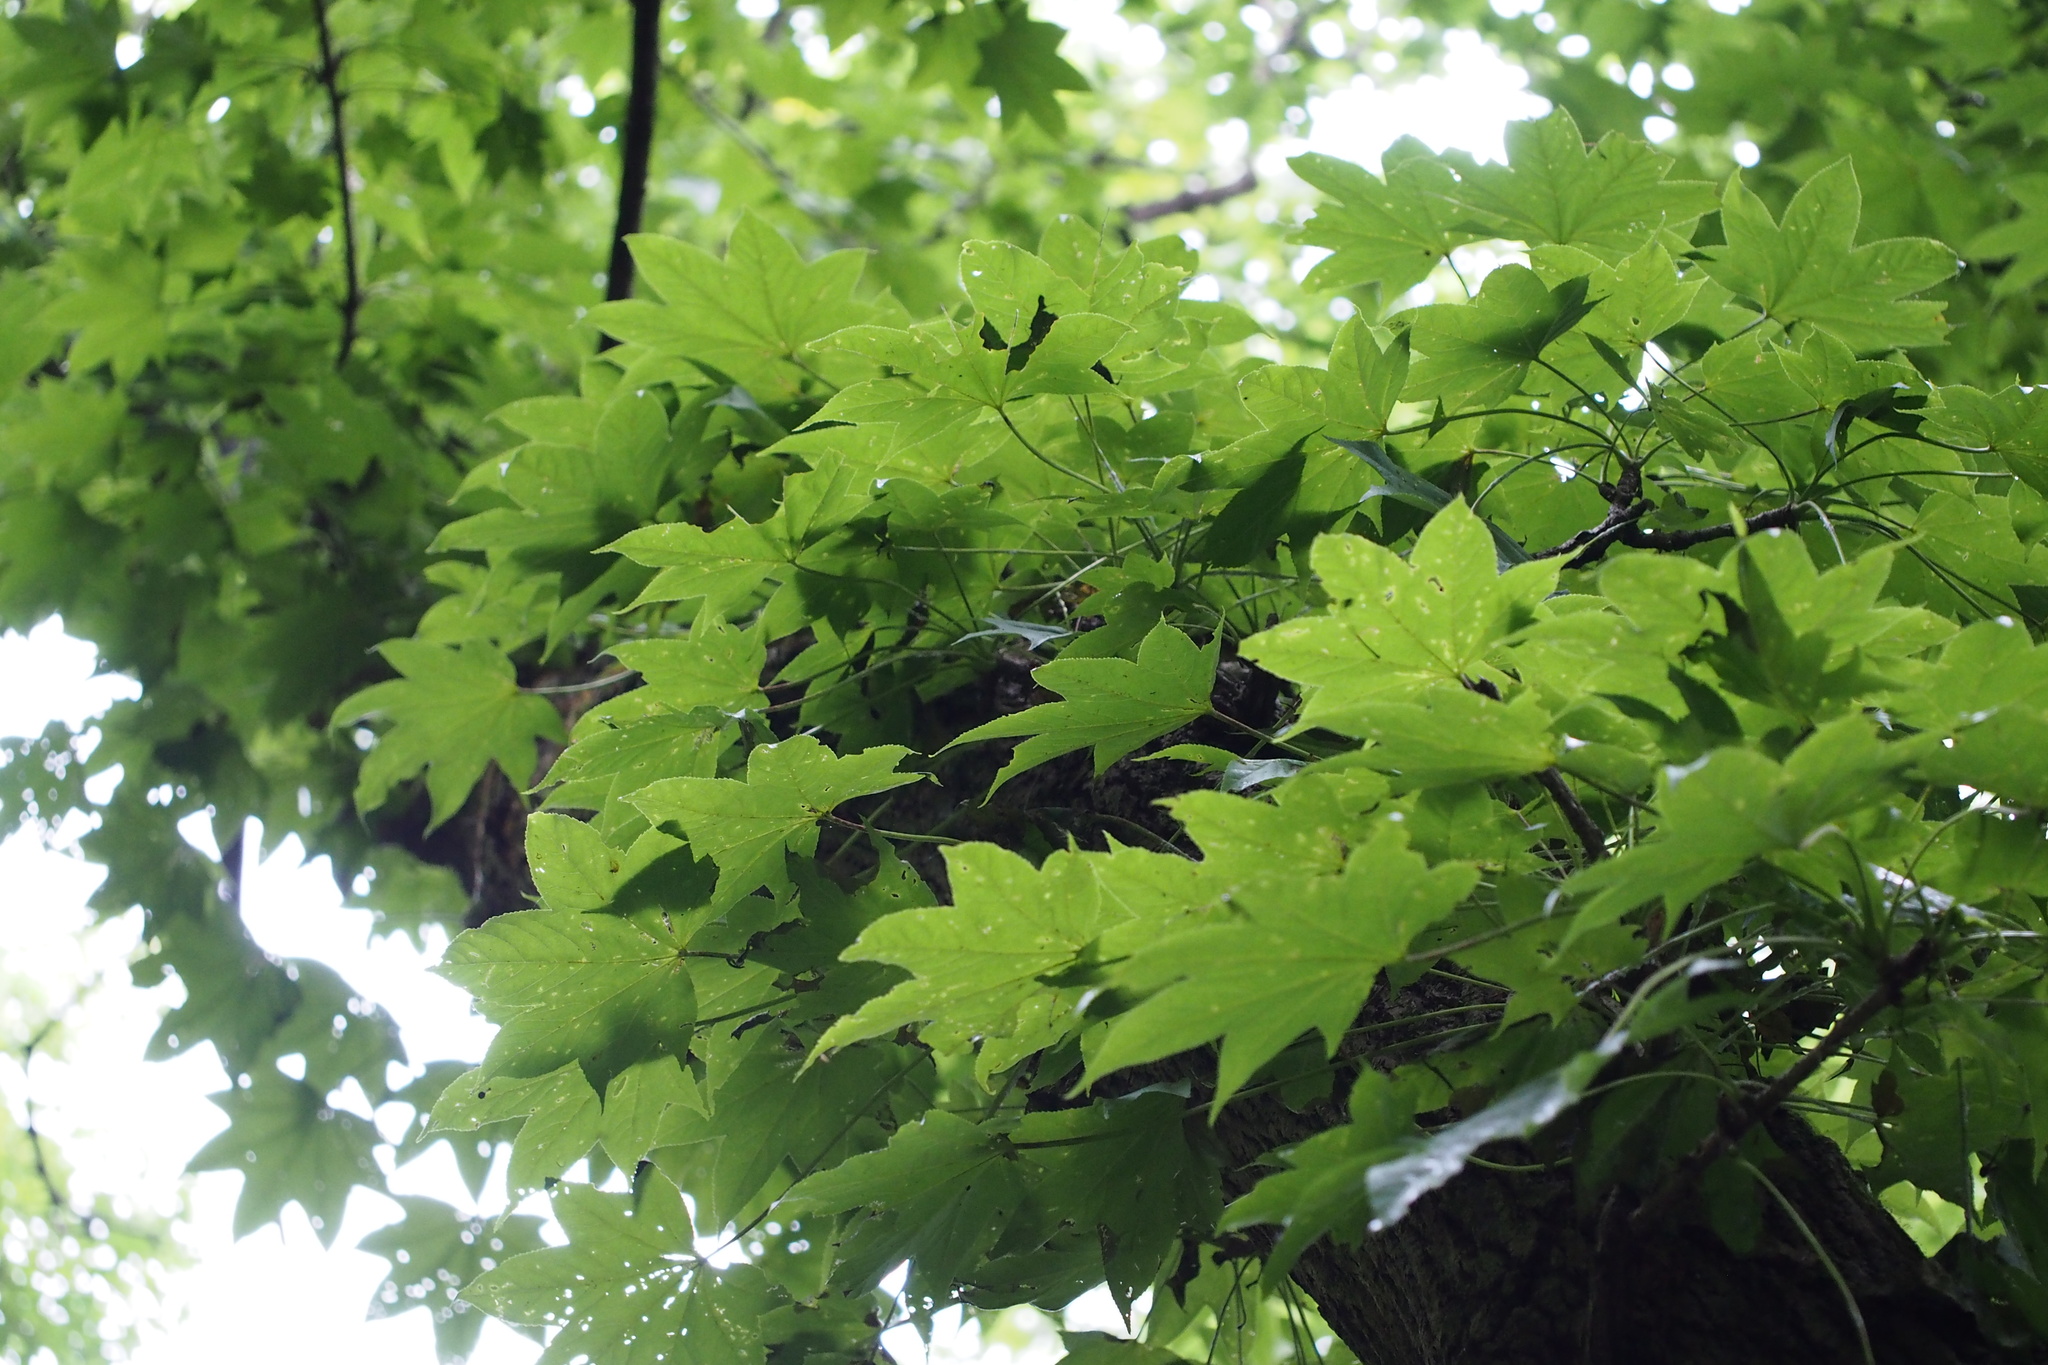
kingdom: Plantae
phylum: Tracheophyta
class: Magnoliopsida
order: Apiales
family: Araliaceae
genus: Kalopanax
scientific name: Kalopanax septemlobus
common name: Castor aralia
